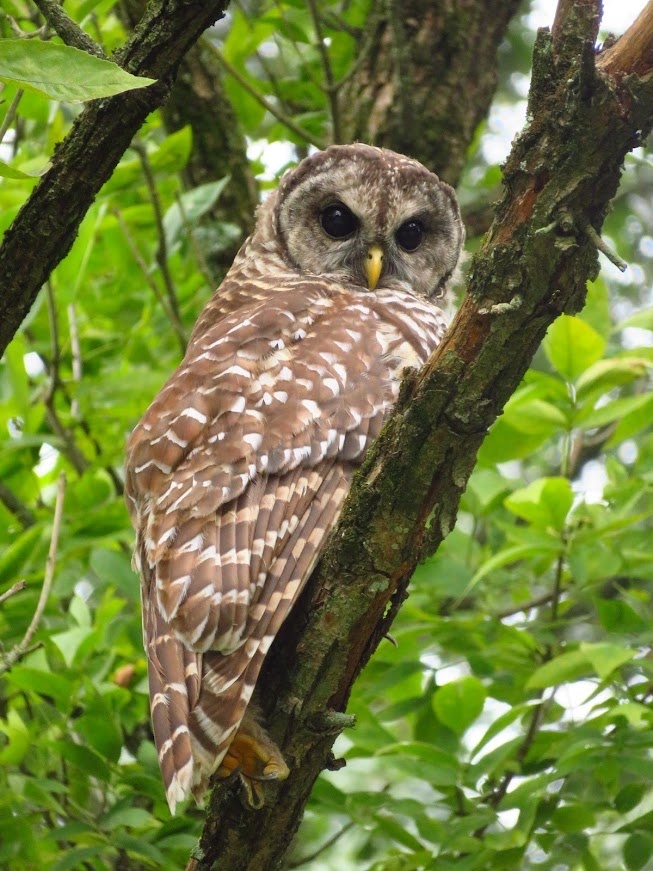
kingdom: Animalia
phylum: Chordata
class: Aves
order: Strigiformes
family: Strigidae
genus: Strix
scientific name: Strix varia
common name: Barred owl
